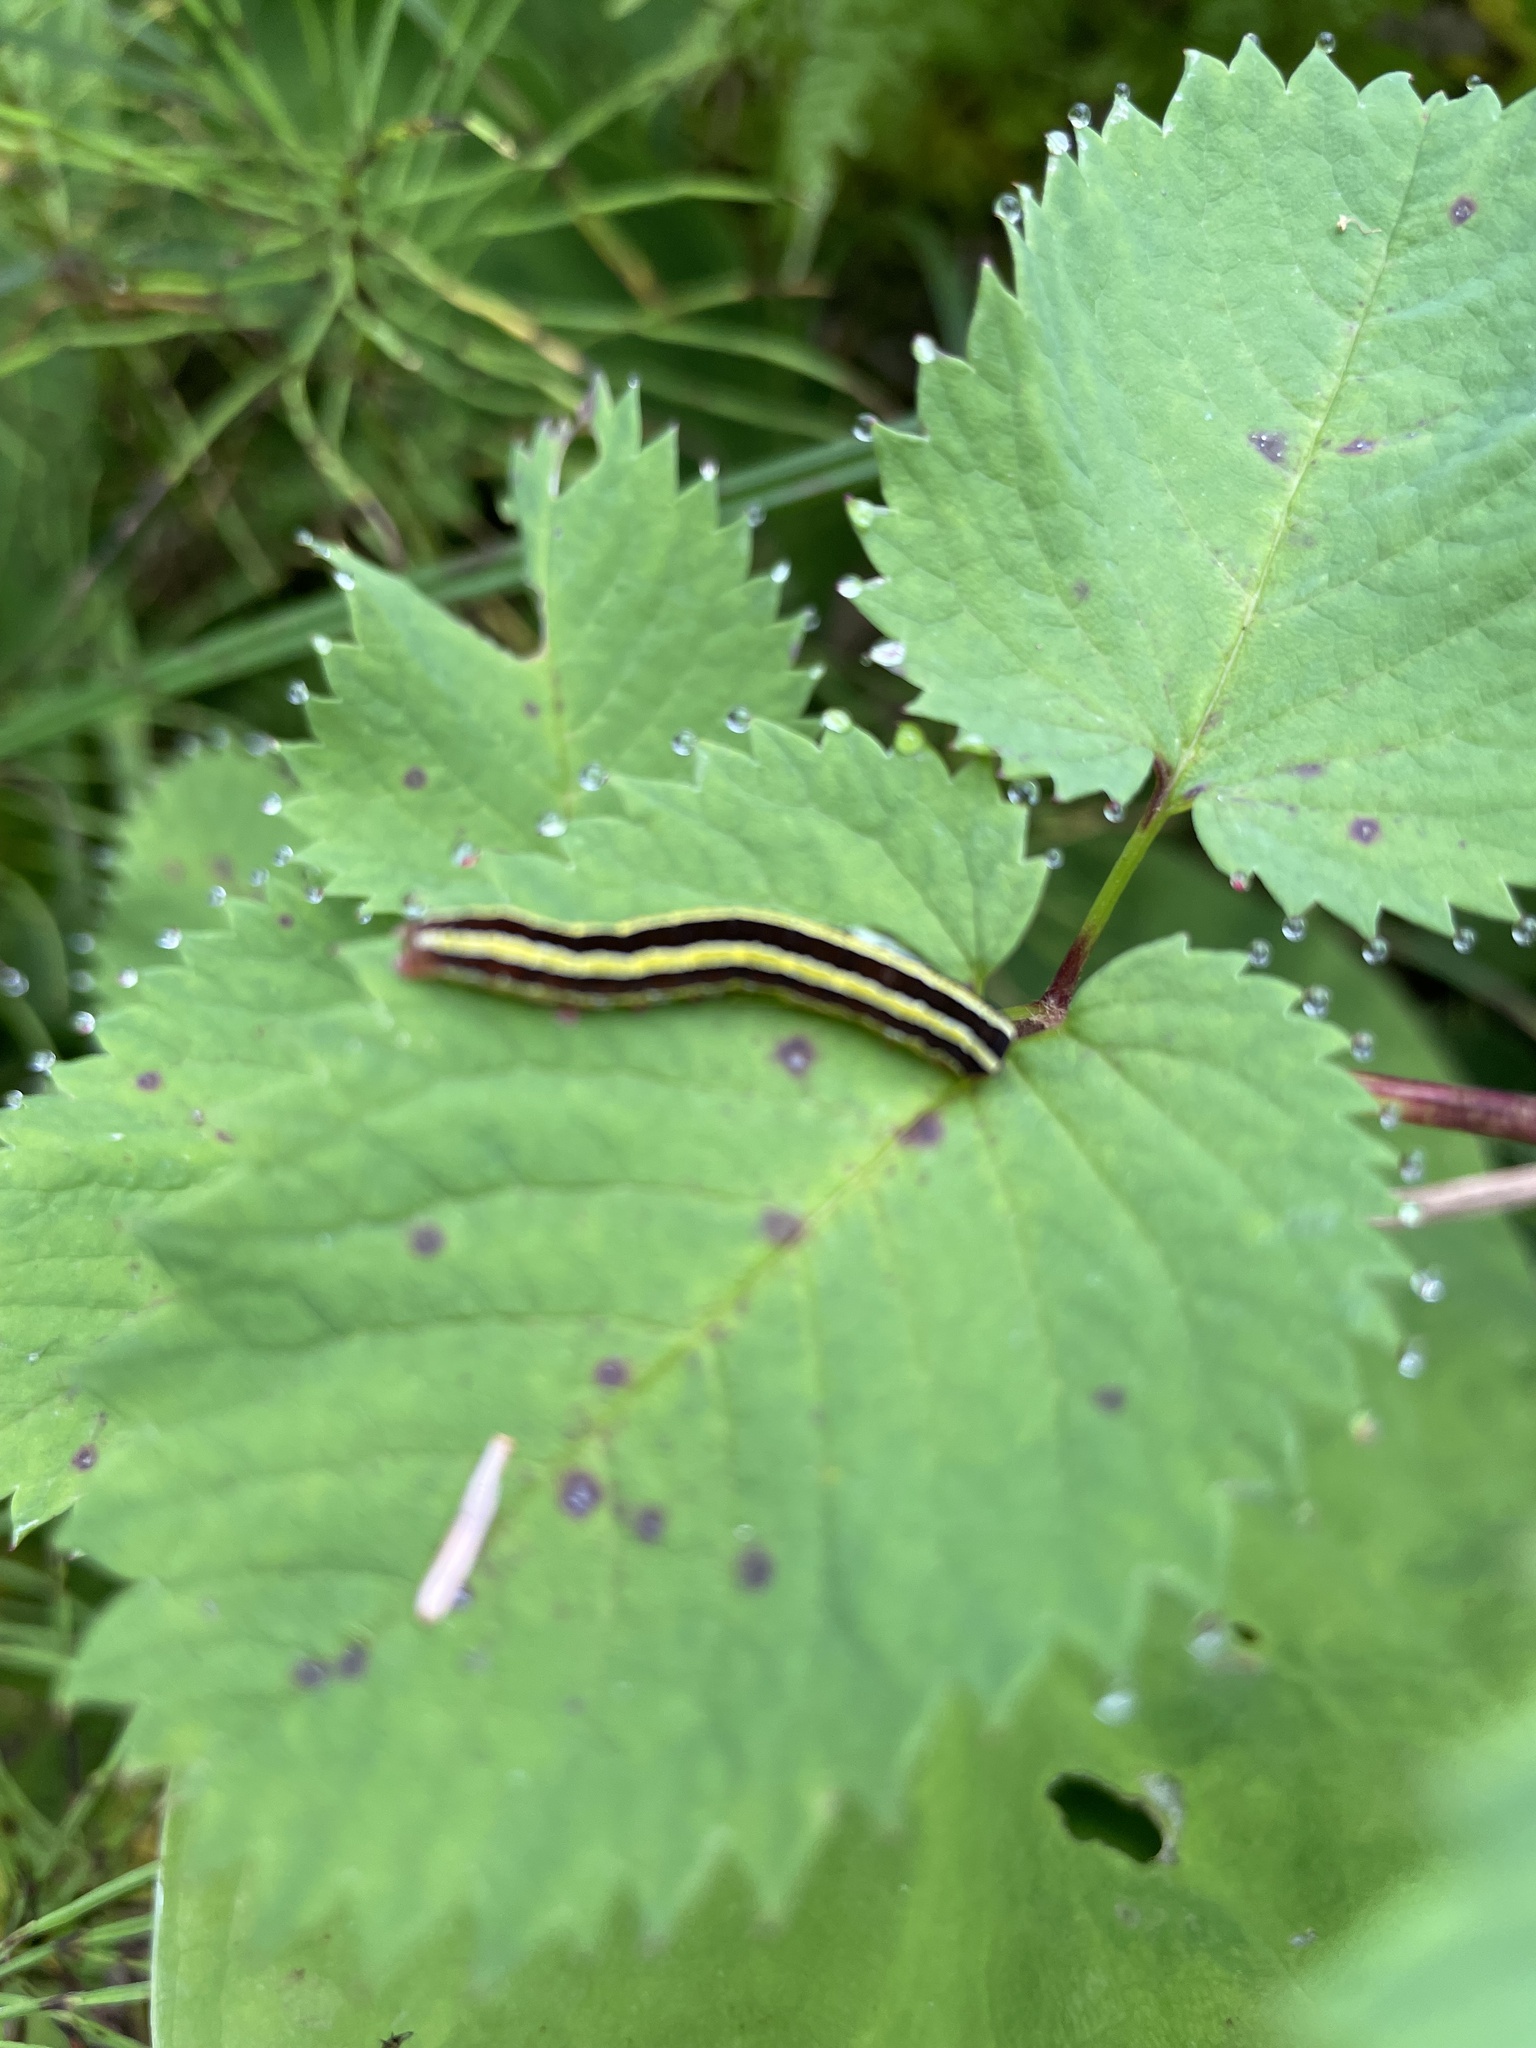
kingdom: Animalia
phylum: Arthropoda
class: Insecta
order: Lepidoptera
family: Noctuidae
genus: Melanchra
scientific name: Melanchra pulverulenta
